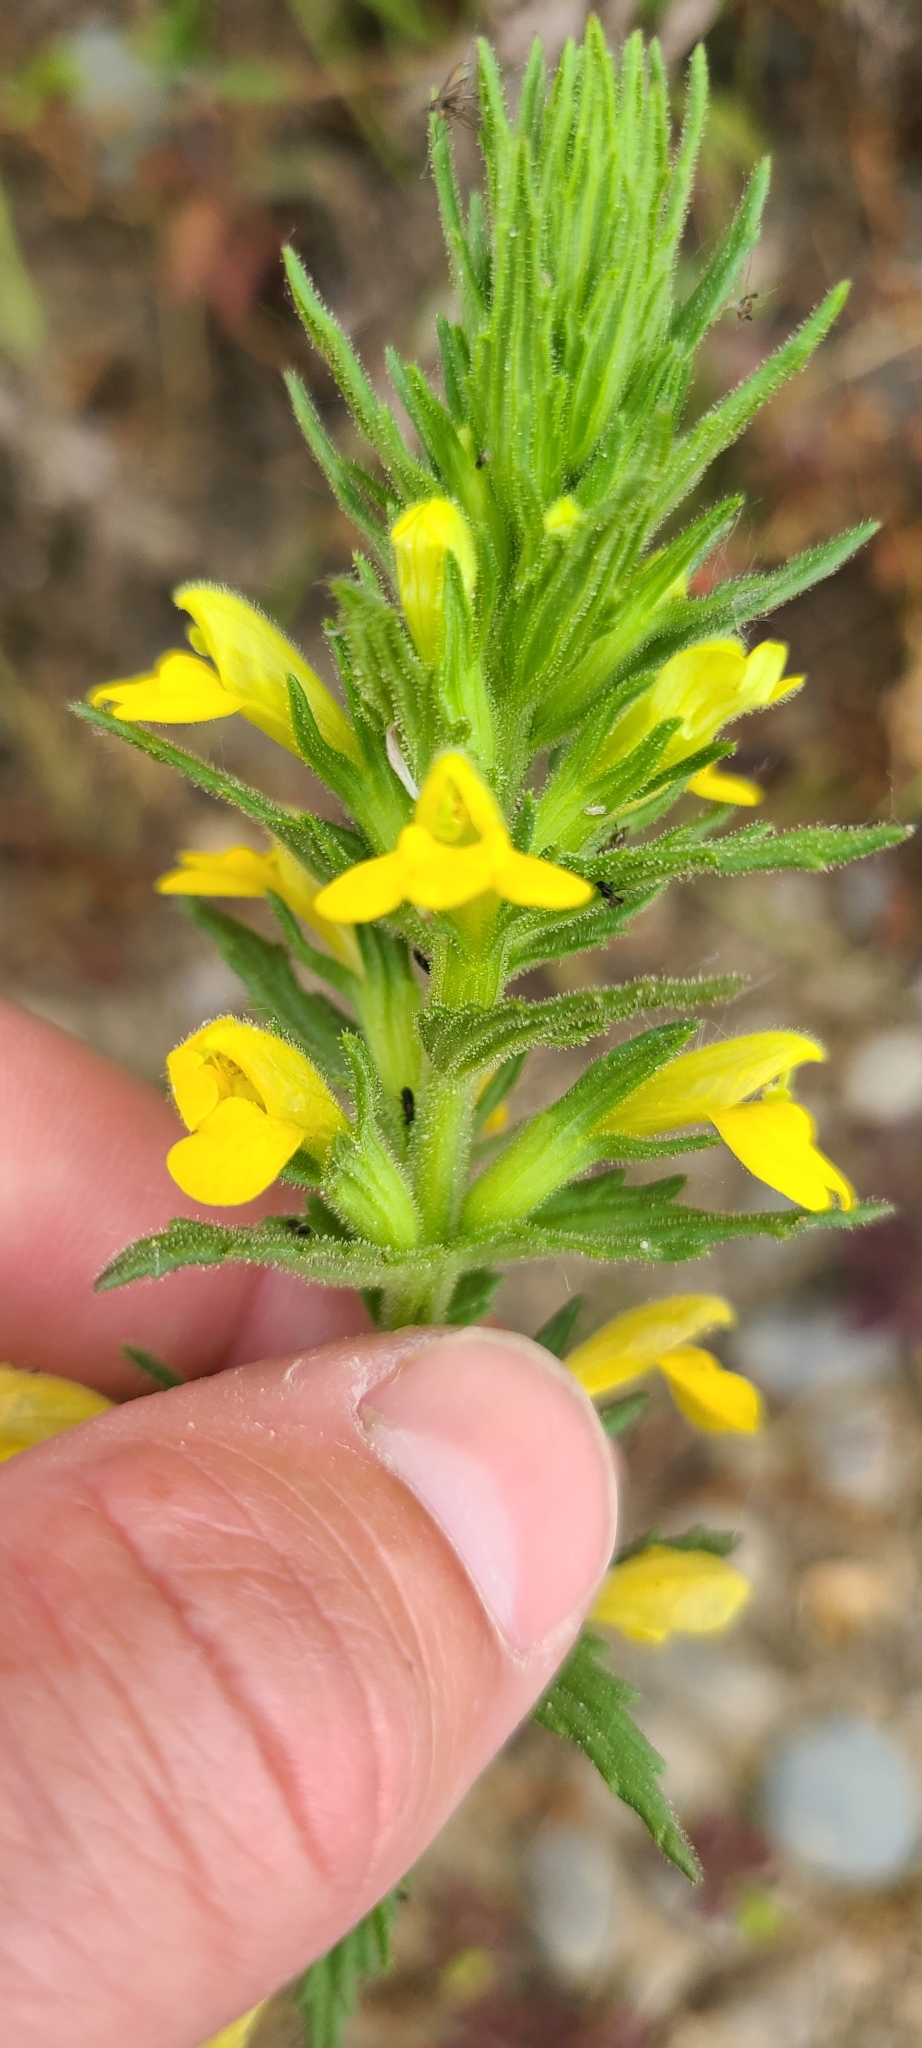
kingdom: Plantae
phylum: Tracheophyta
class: Magnoliopsida
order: Lamiales
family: Orobanchaceae
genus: Bellardia
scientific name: Bellardia viscosa
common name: Sticky parentucellia
